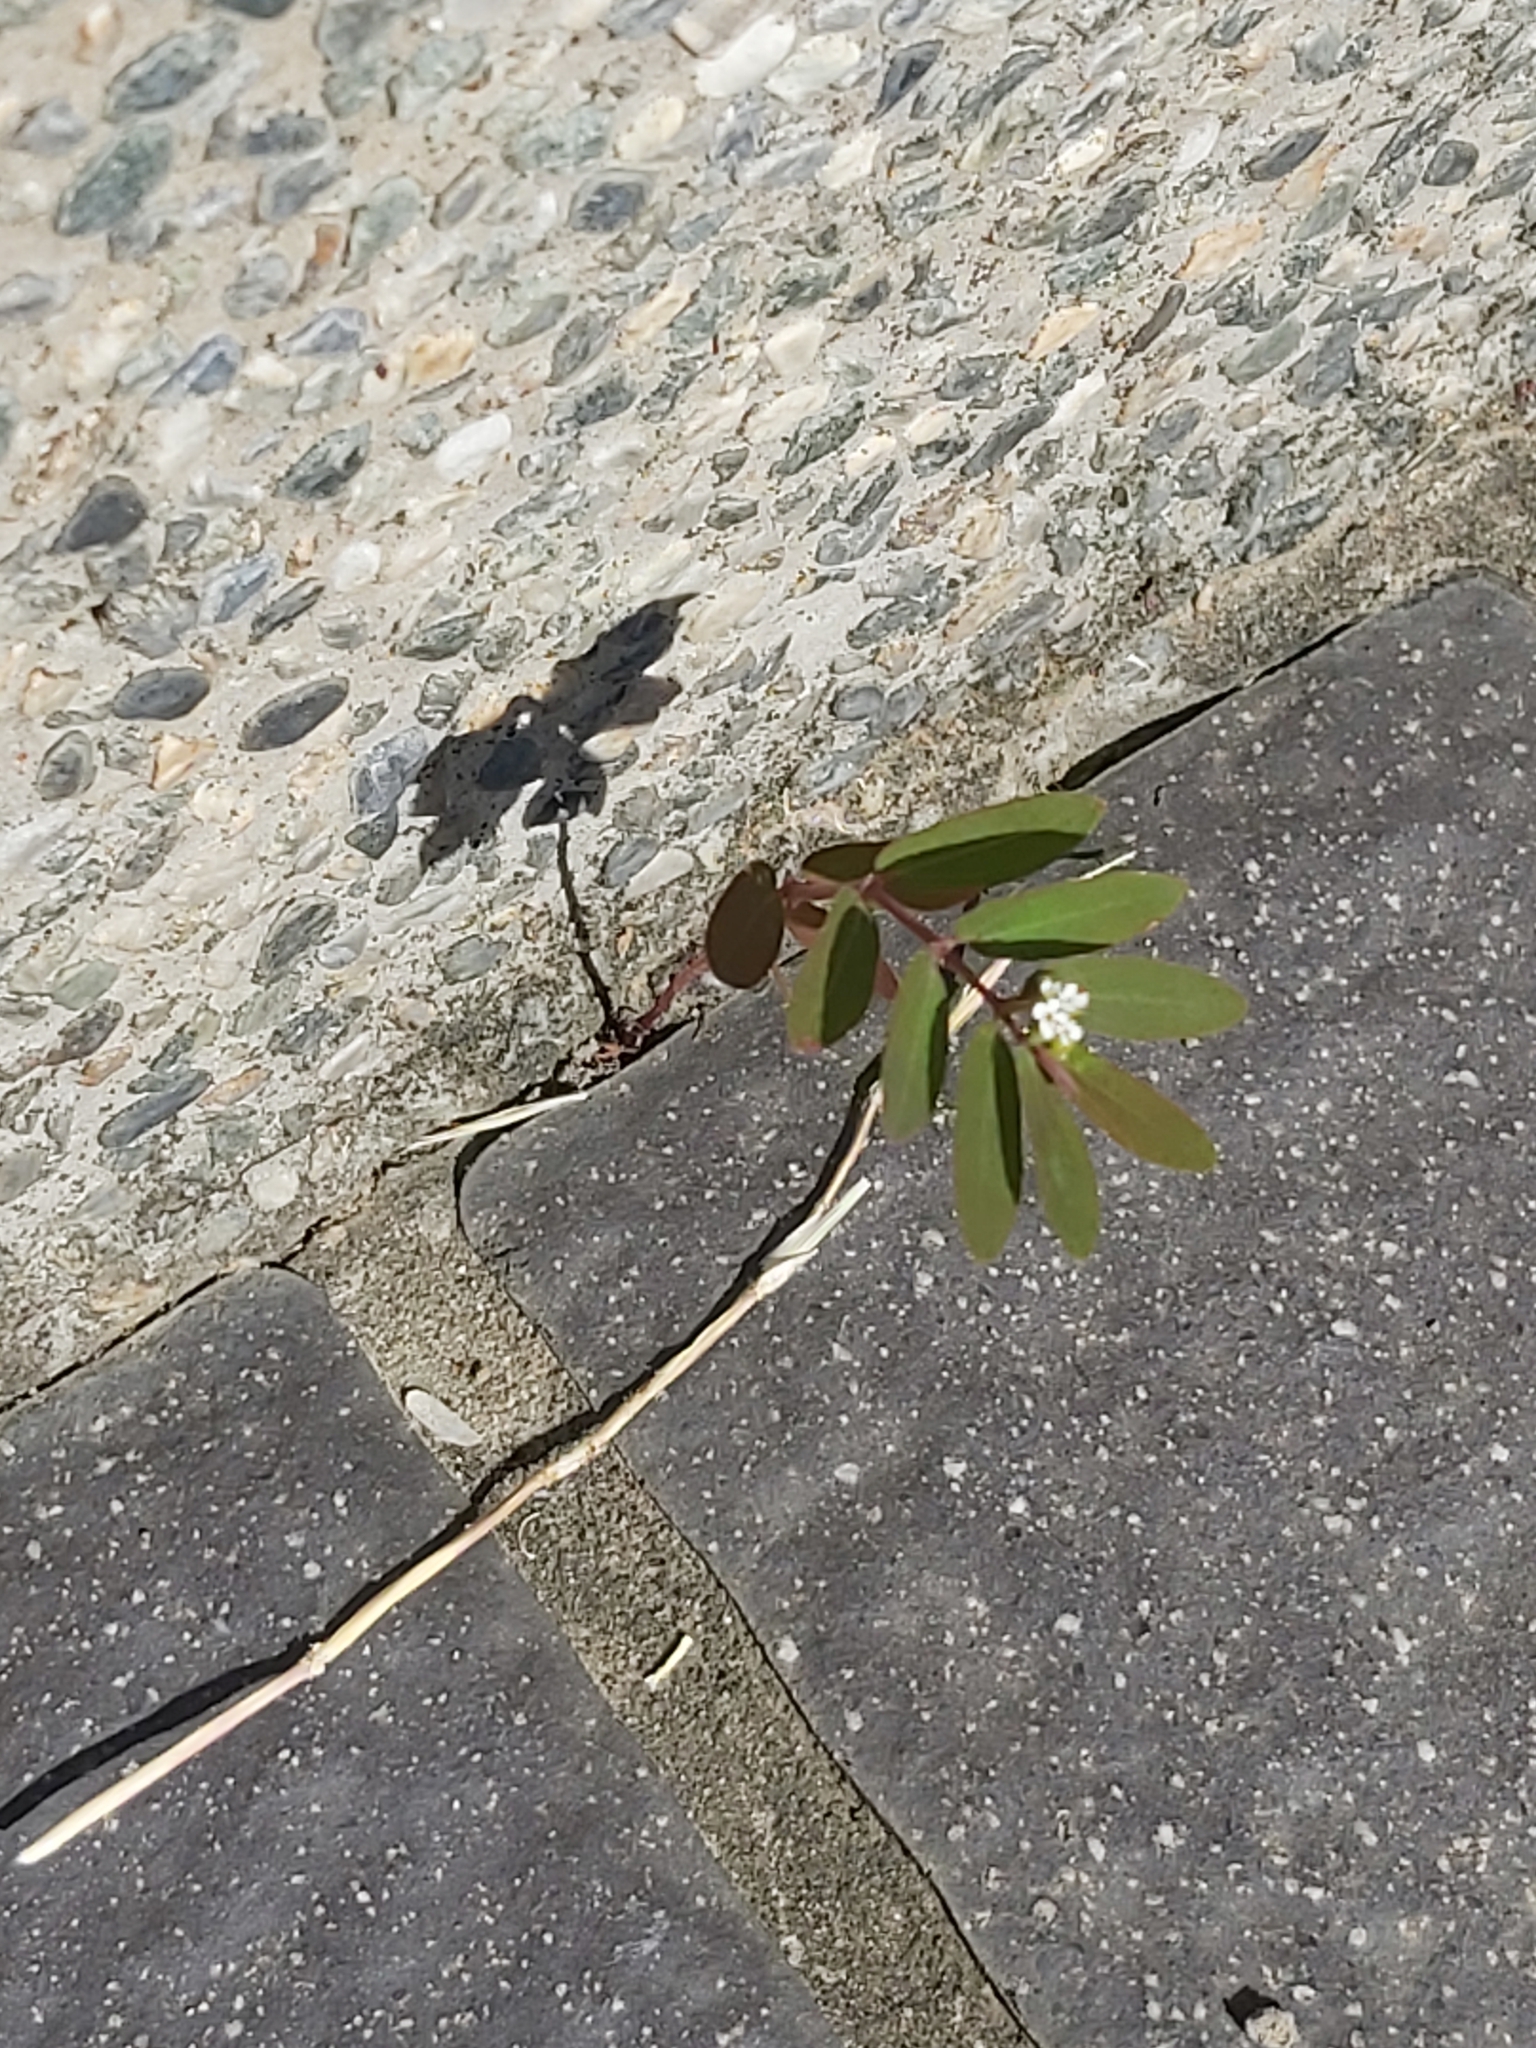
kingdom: Plantae
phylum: Tracheophyta
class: Magnoliopsida
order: Malpighiales
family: Euphorbiaceae
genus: Euphorbia
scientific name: Euphorbia hypericifolia
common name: Graceful sandmat
